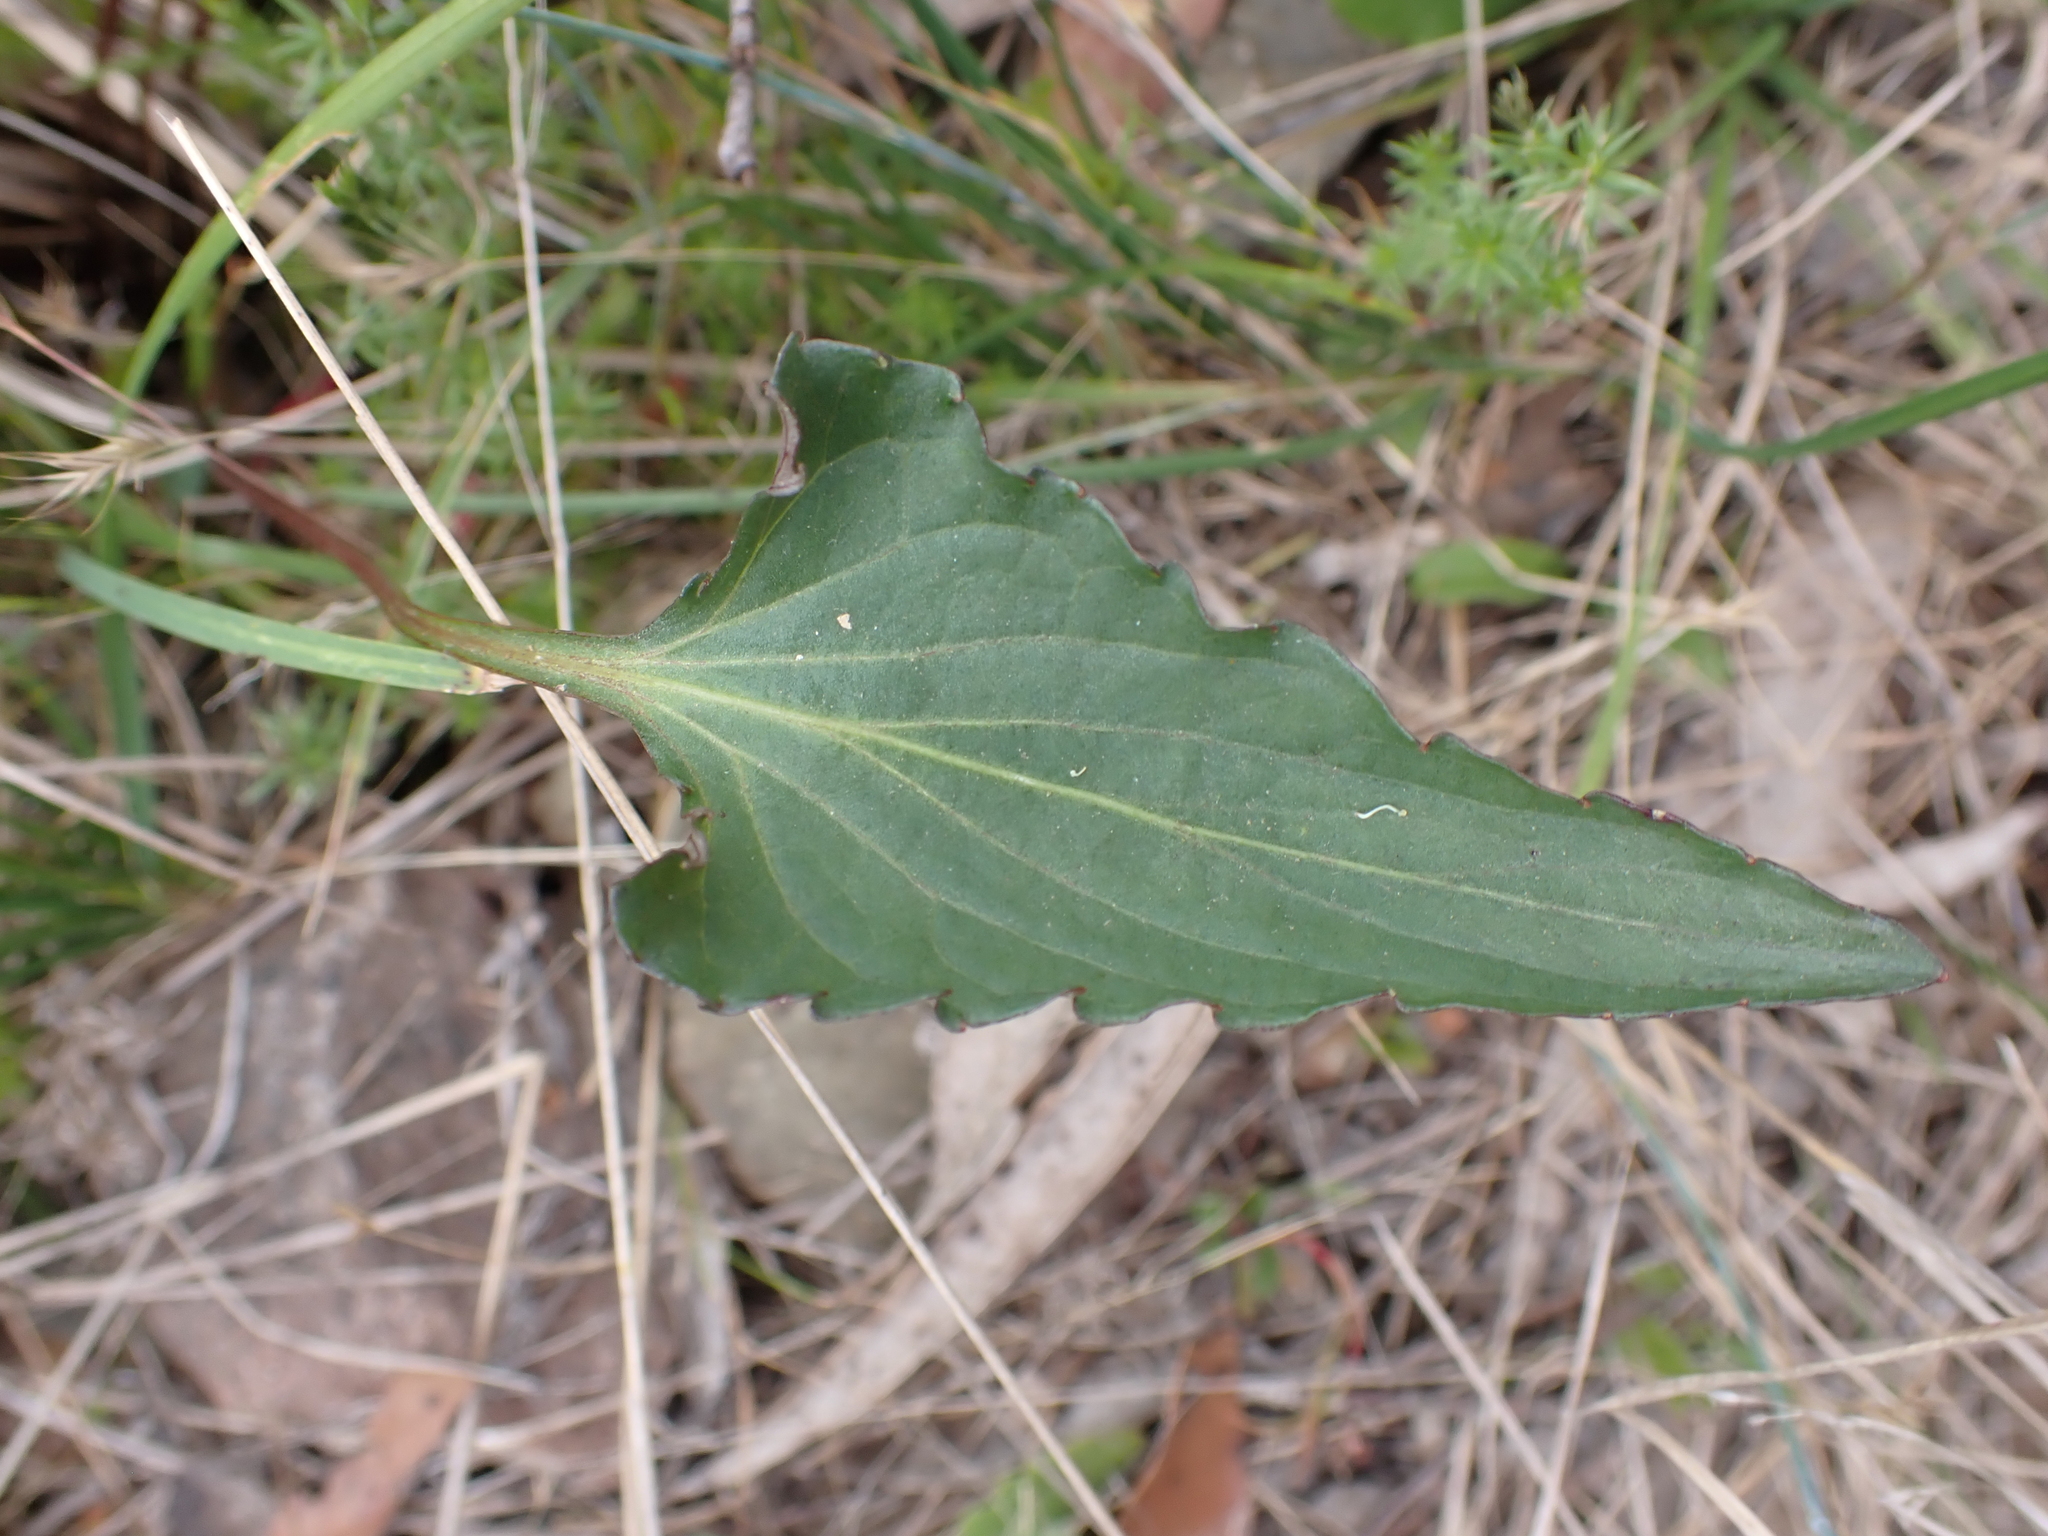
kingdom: Plantae
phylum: Tracheophyta
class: Magnoliopsida
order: Malpighiales
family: Violaceae
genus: Viola
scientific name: Viola betonicifolia
